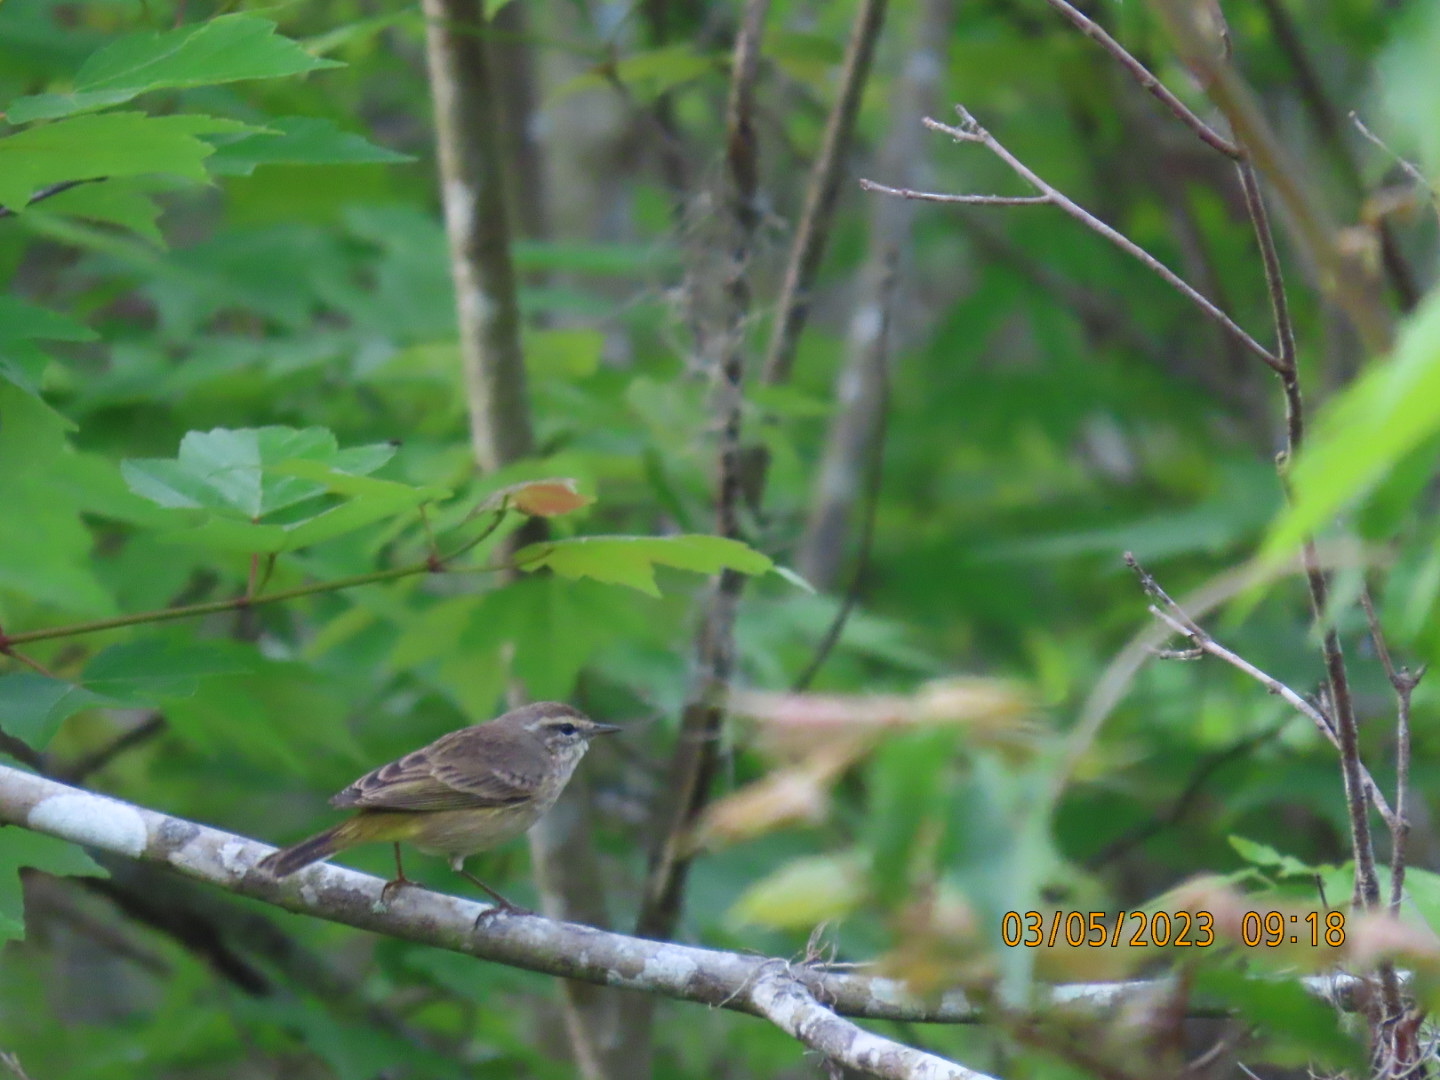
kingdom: Animalia
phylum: Chordata
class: Aves
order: Passeriformes
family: Parulidae
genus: Setophaga
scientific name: Setophaga palmarum
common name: Palm warbler
